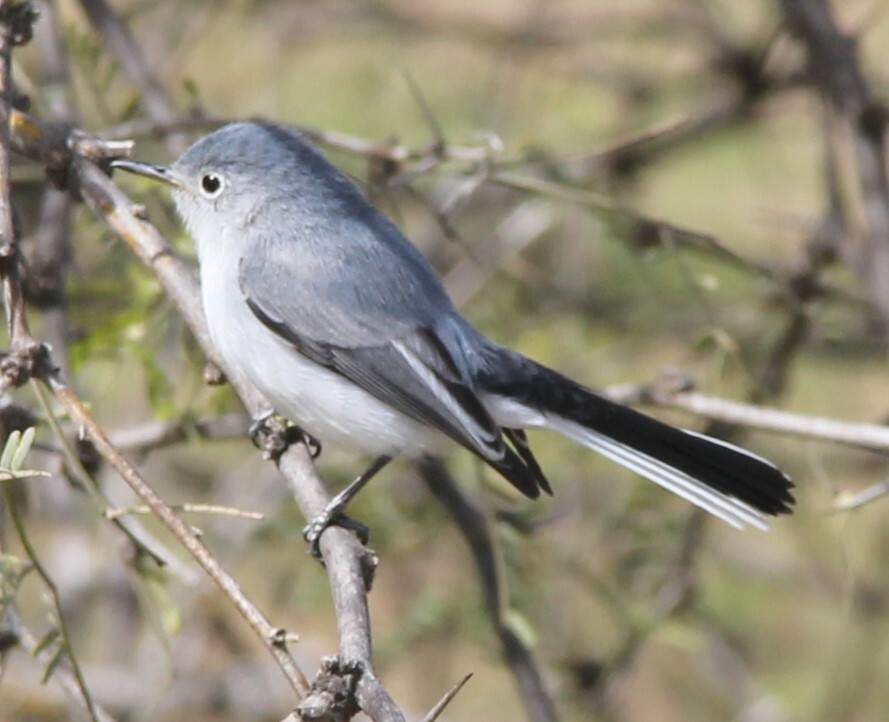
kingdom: Animalia
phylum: Chordata
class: Aves
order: Passeriformes
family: Polioptilidae
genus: Polioptila
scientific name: Polioptila caerulea
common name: Blue-gray gnatcatcher
